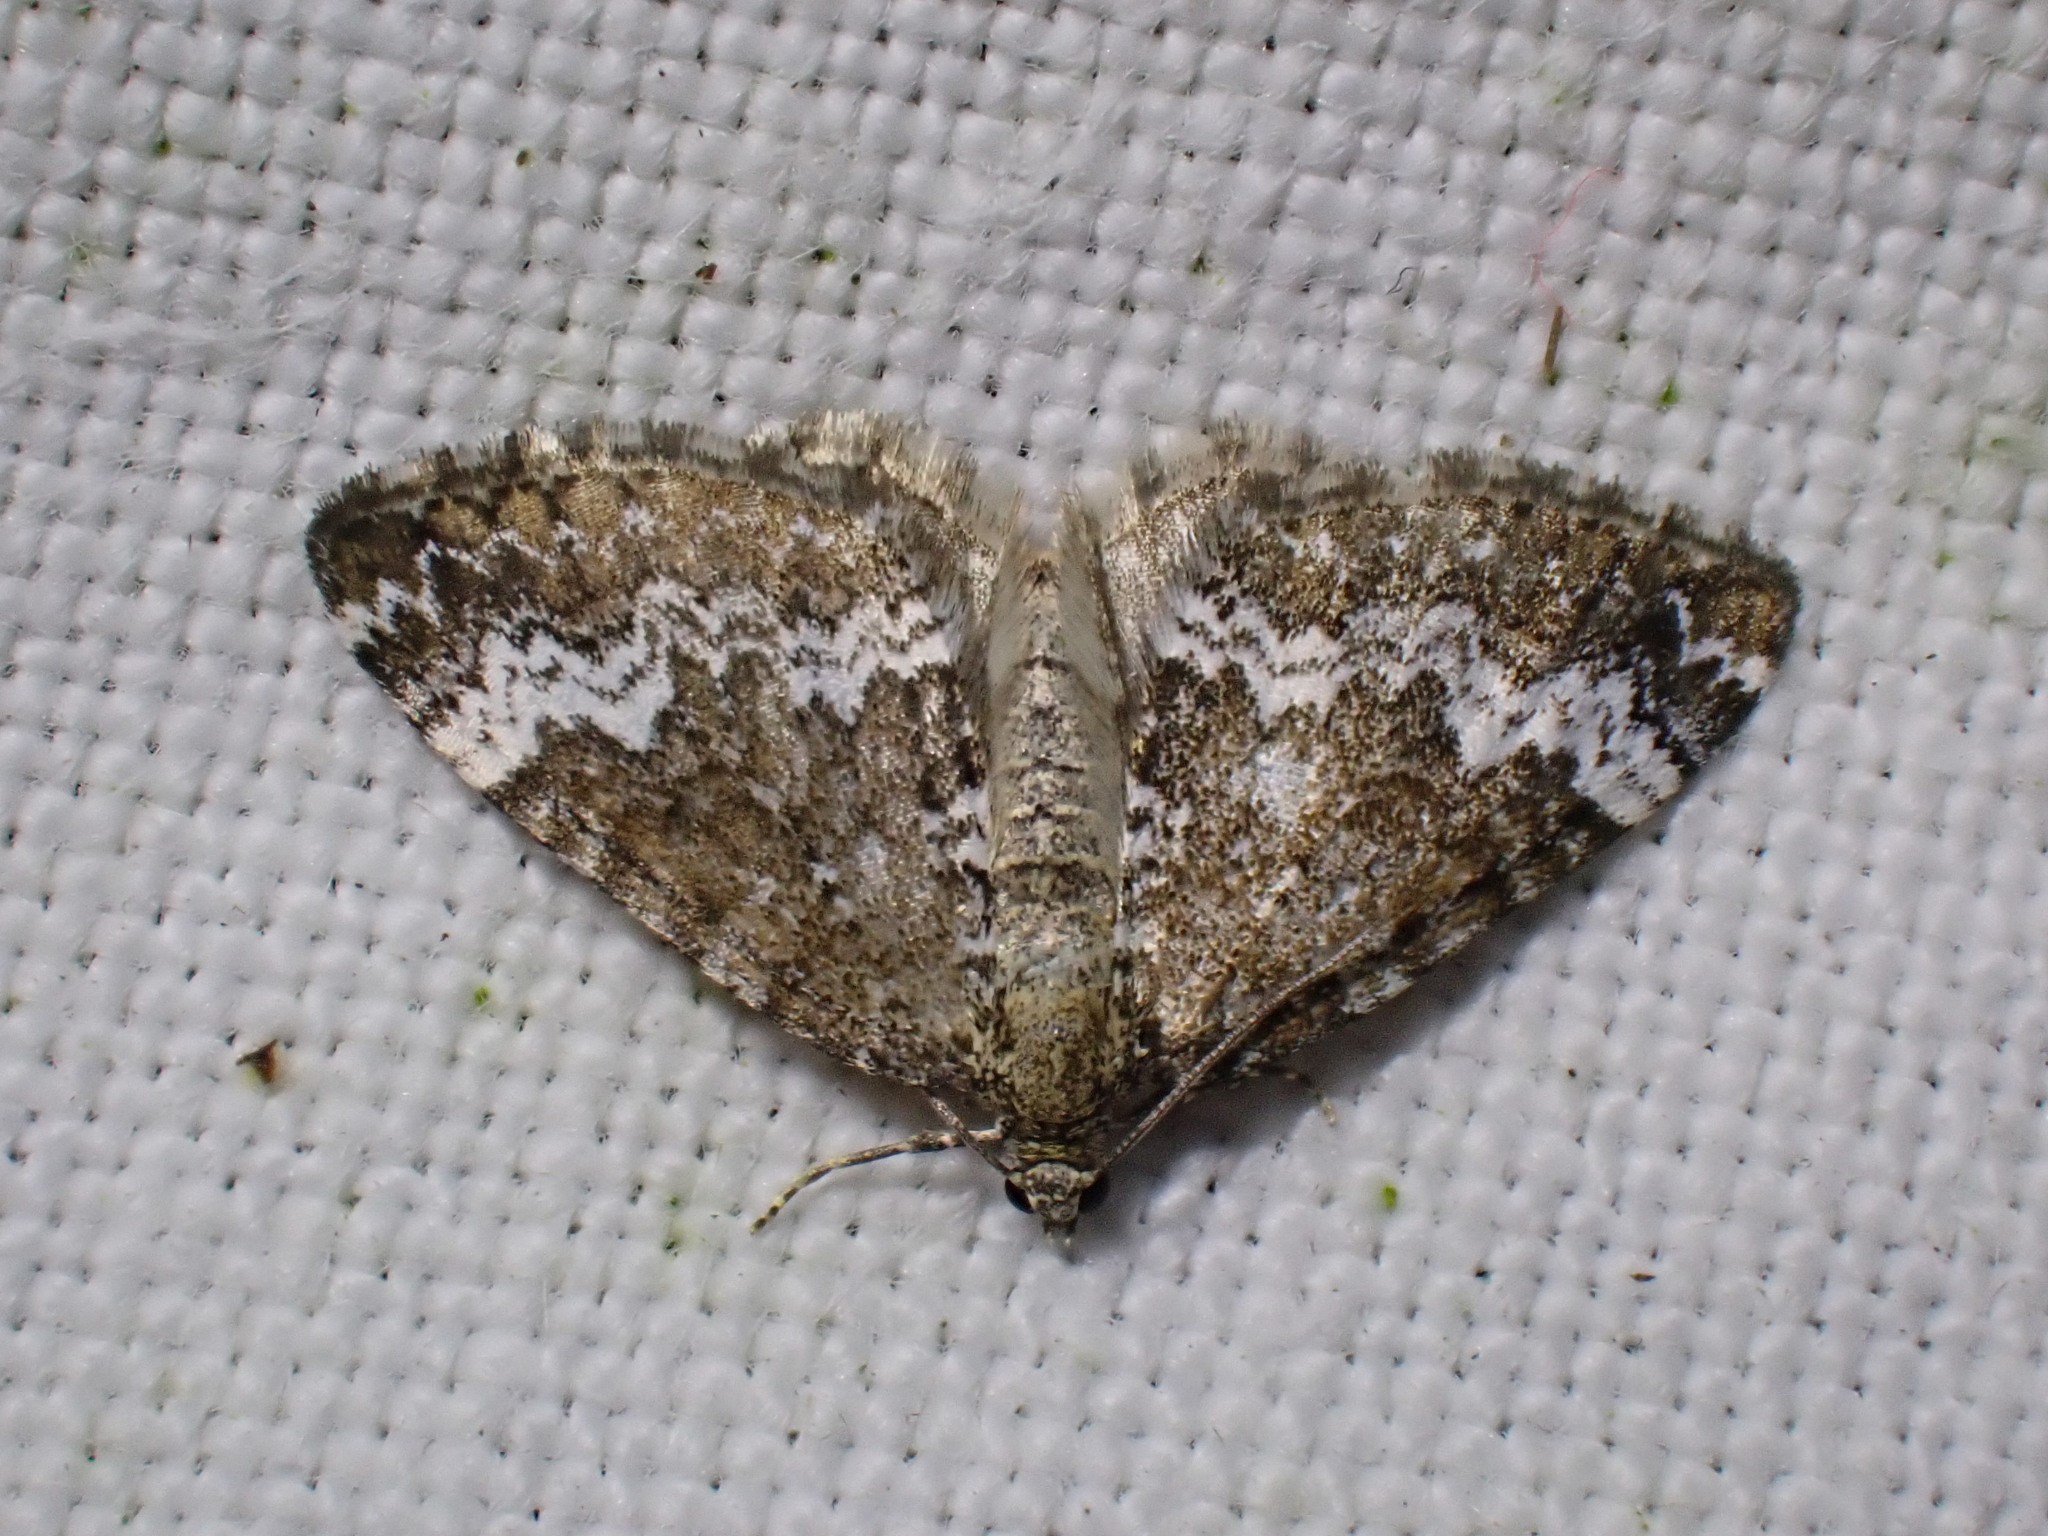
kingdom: Animalia
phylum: Arthropoda
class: Insecta
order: Lepidoptera
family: Geometridae
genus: Perizoma
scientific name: Perizoma alchemillata
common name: Small rivulet
